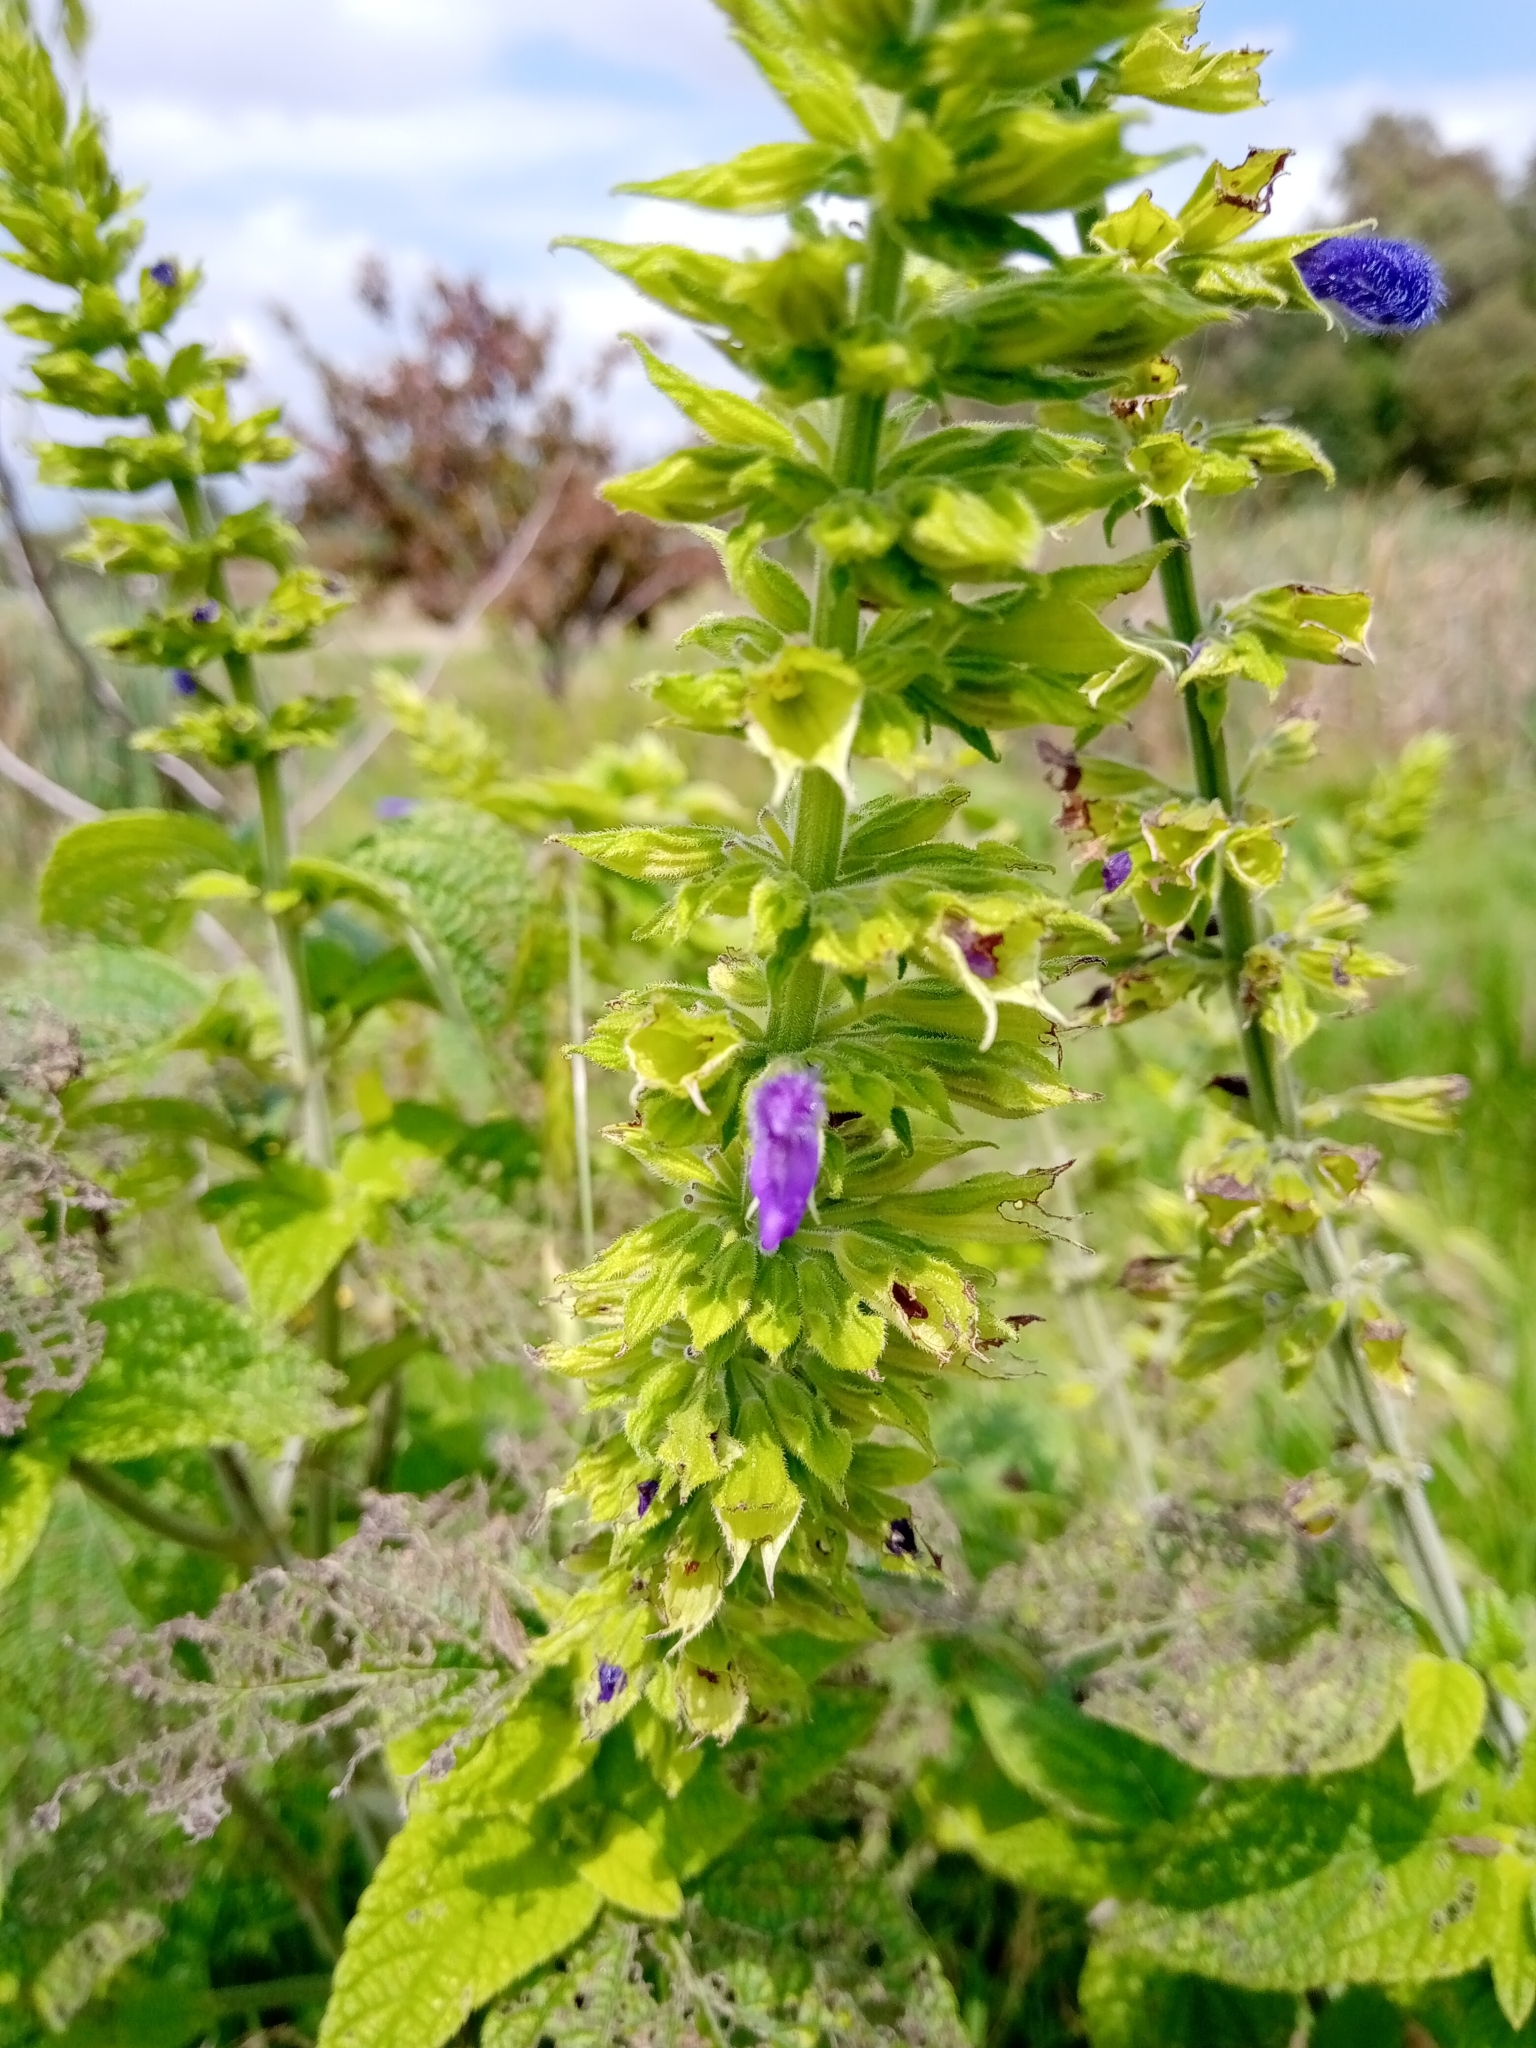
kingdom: Plantae
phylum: Tracheophyta
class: Magnoliopsida
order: Lamiales
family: Lamiaceae
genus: Salvia
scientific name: Salvia mexicana
